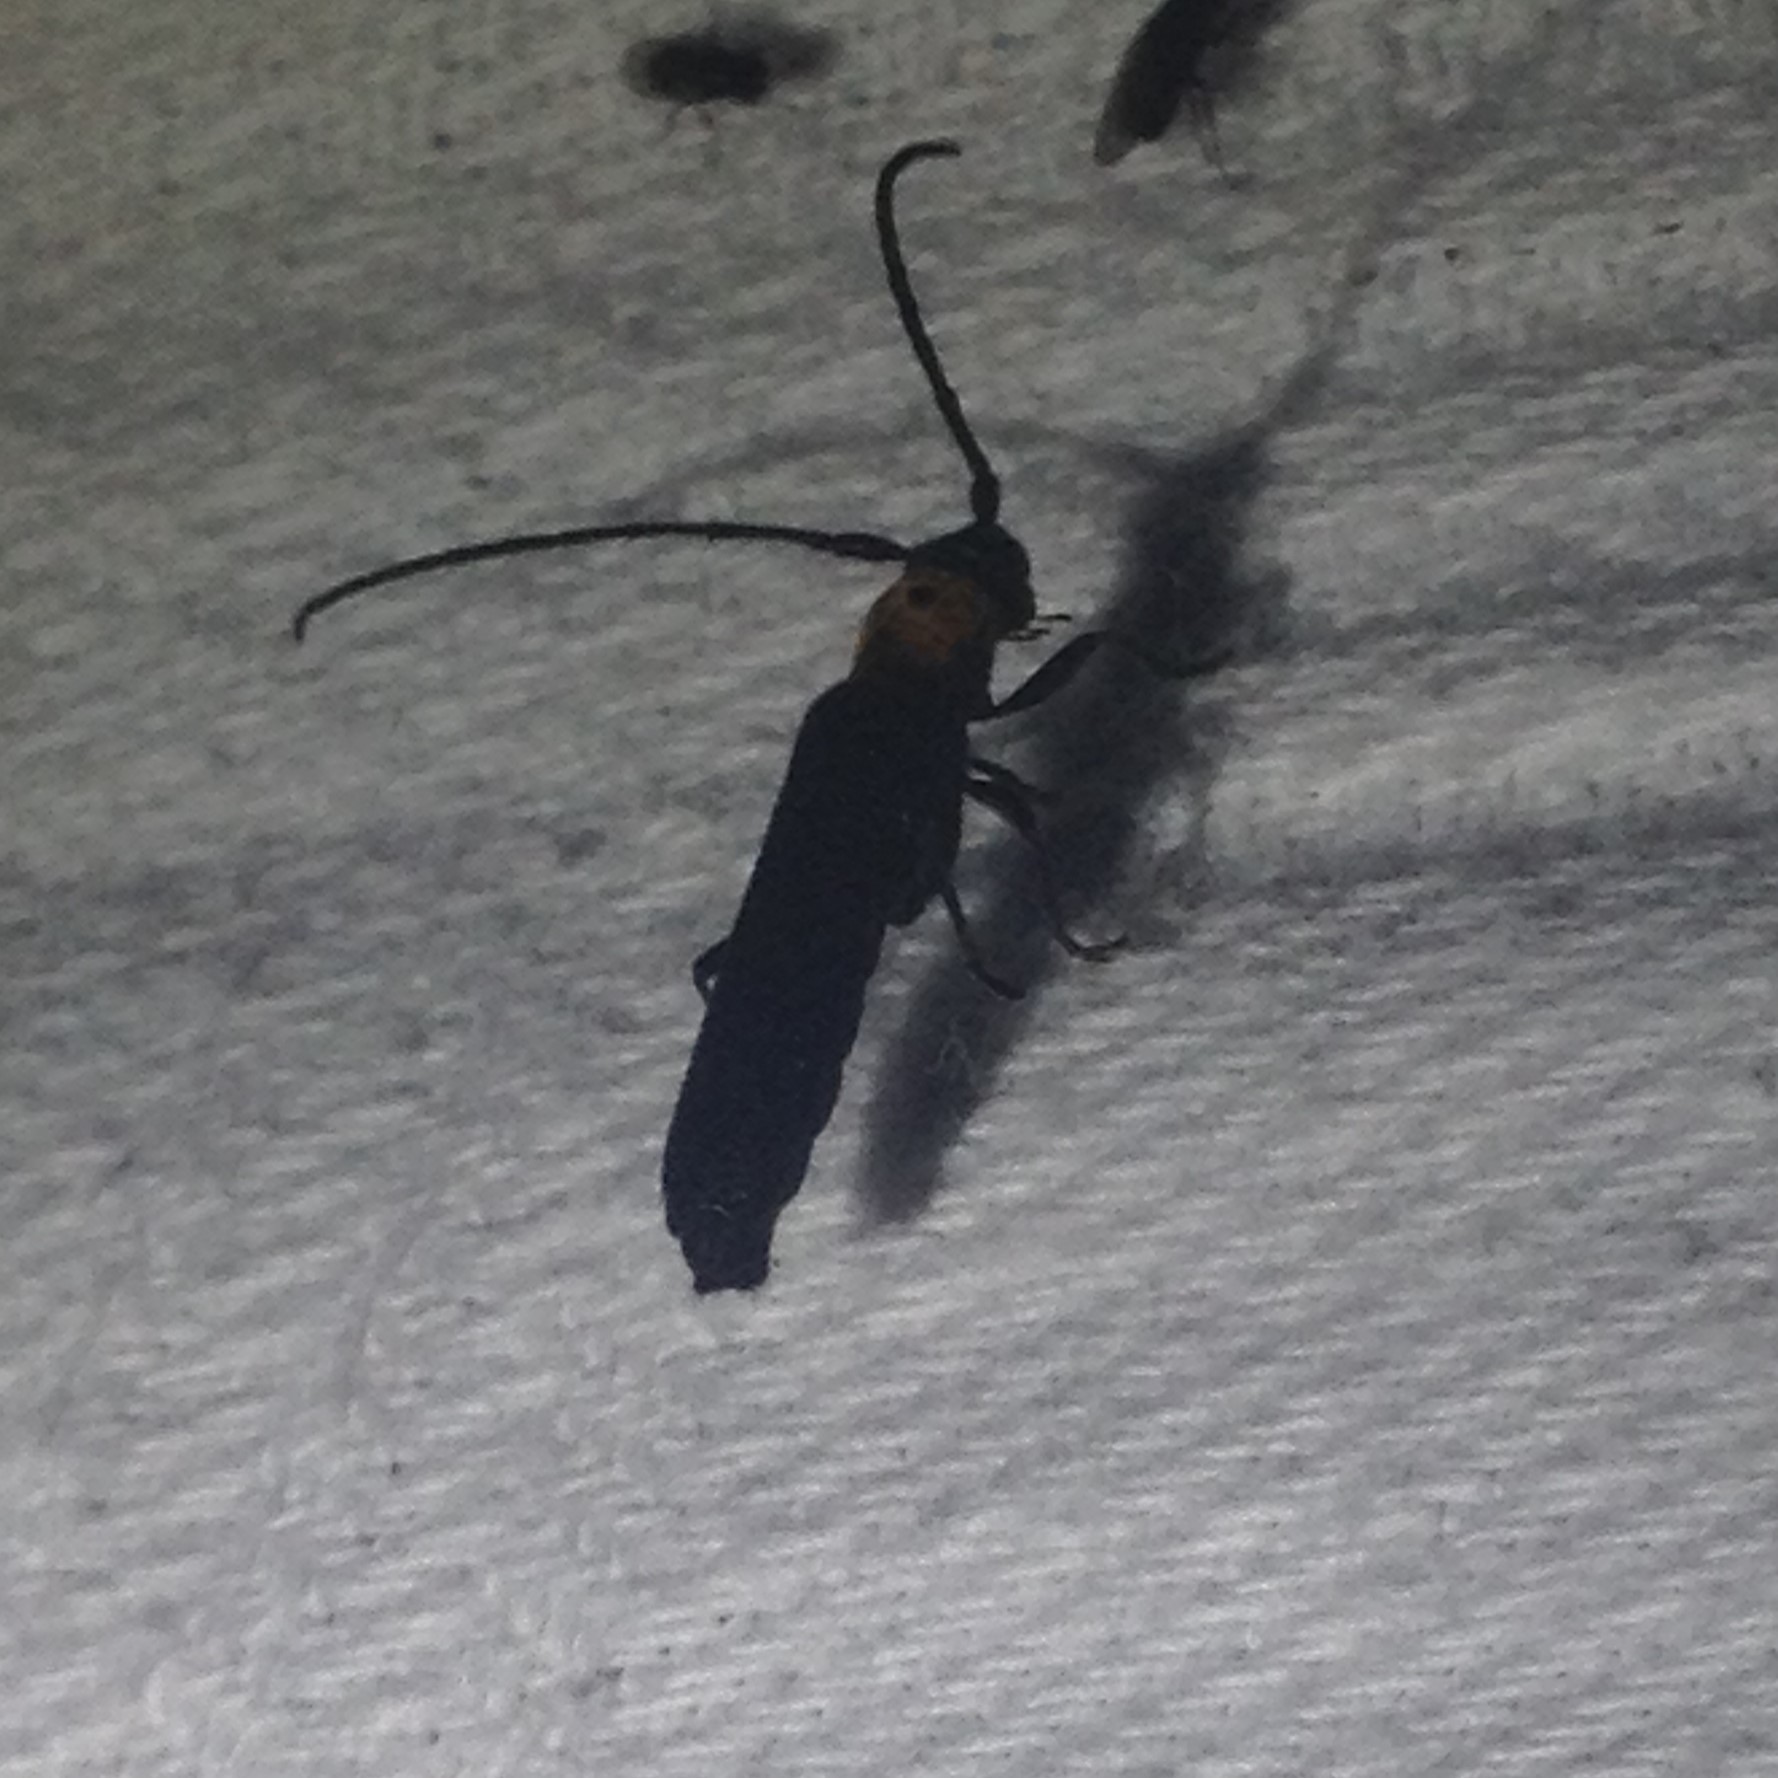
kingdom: Animalia
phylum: Arthropoda
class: Insecta
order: Coleoptera
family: Cerambycidae
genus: Oberea
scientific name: Oberea perspicillata
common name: Raspberry cane borer
